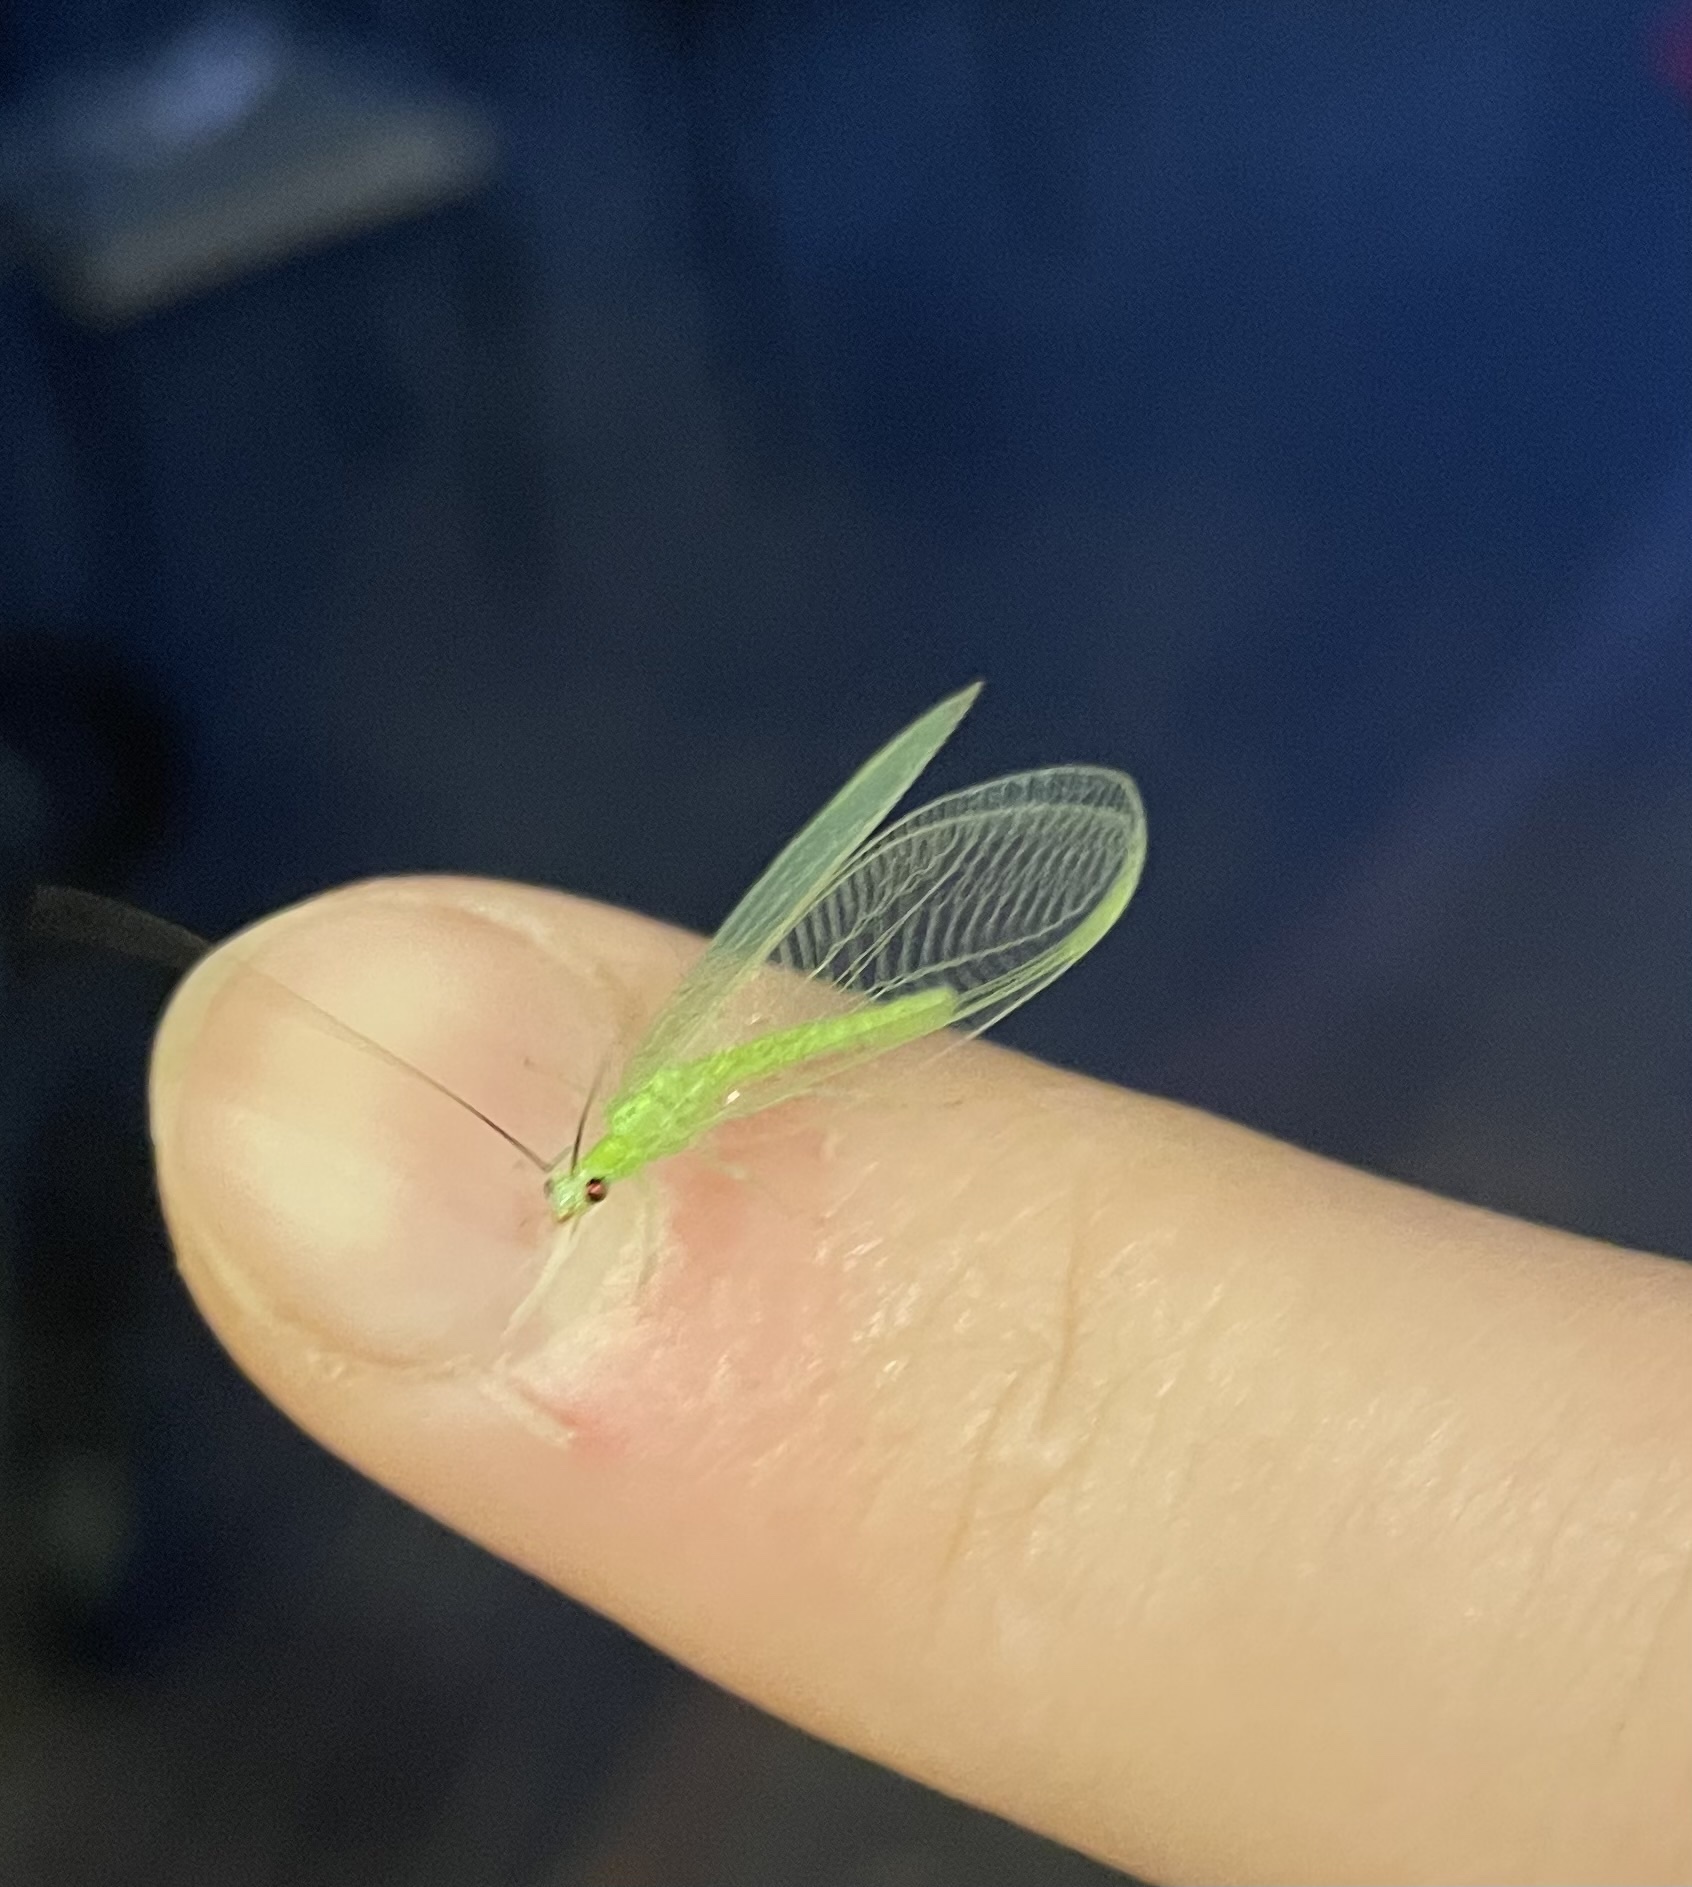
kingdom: Animalia
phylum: Arthropoda
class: Insecta
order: Neuroptera
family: Chrysopidae
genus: Chrysopa
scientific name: Chrysopa nigricornis
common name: Black-horned green lacewing
